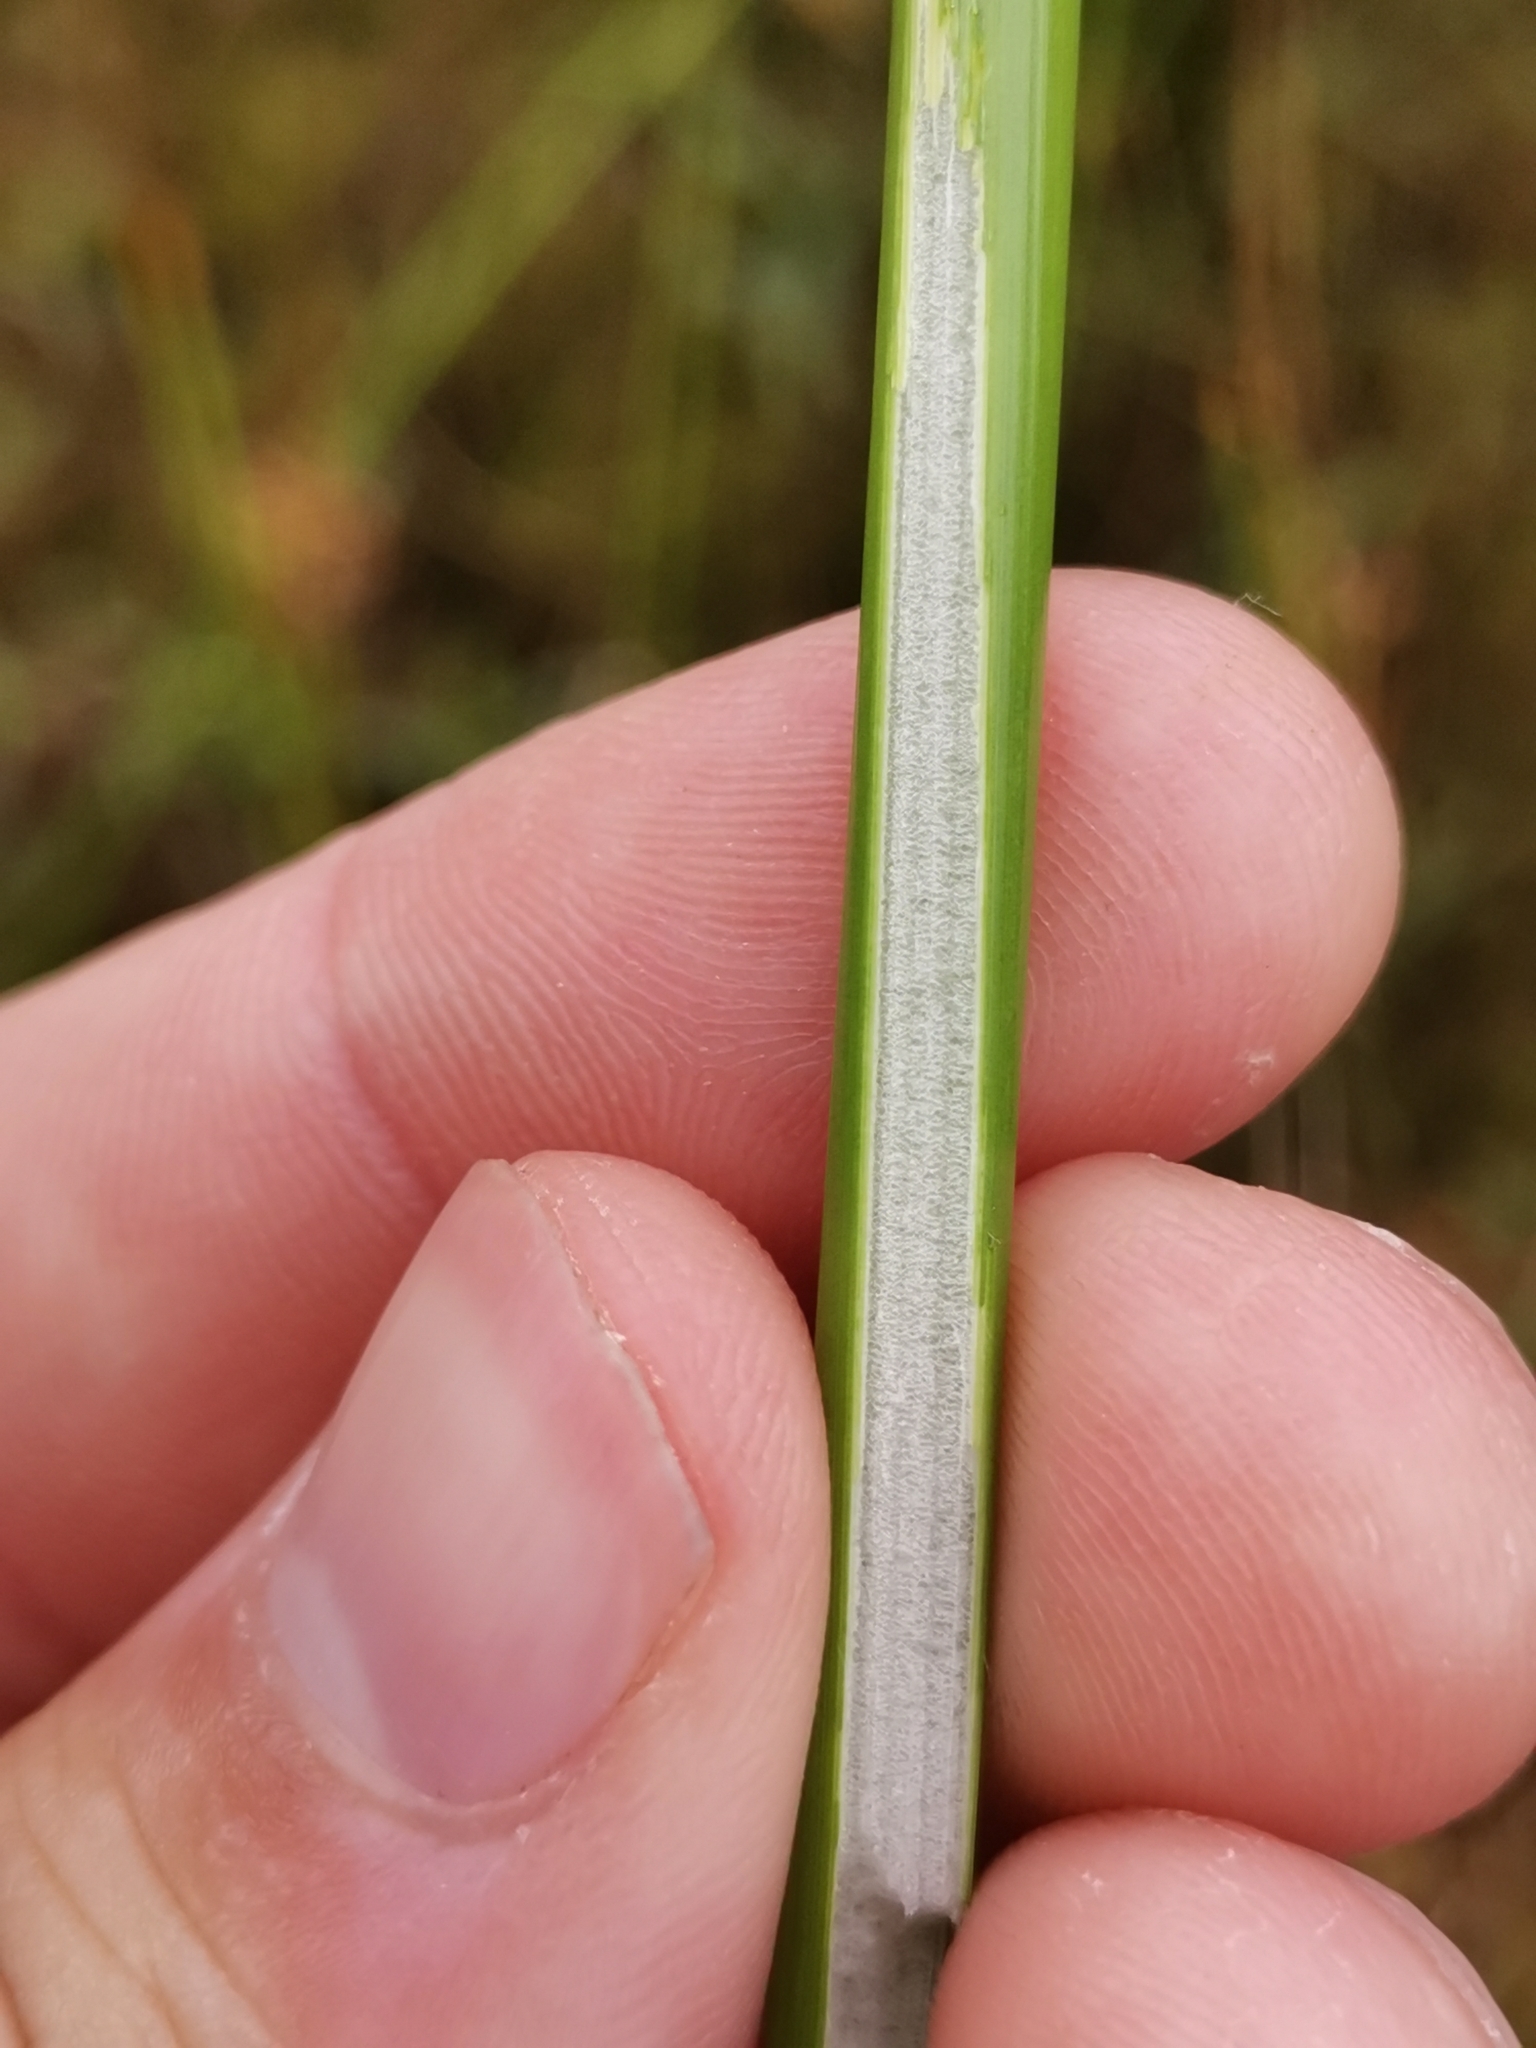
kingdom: Plantae
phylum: Tracheophyta
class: Liliopsida
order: Poales
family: Juncaceae
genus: Juncus
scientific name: Juncus effusus
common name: Soft rush
